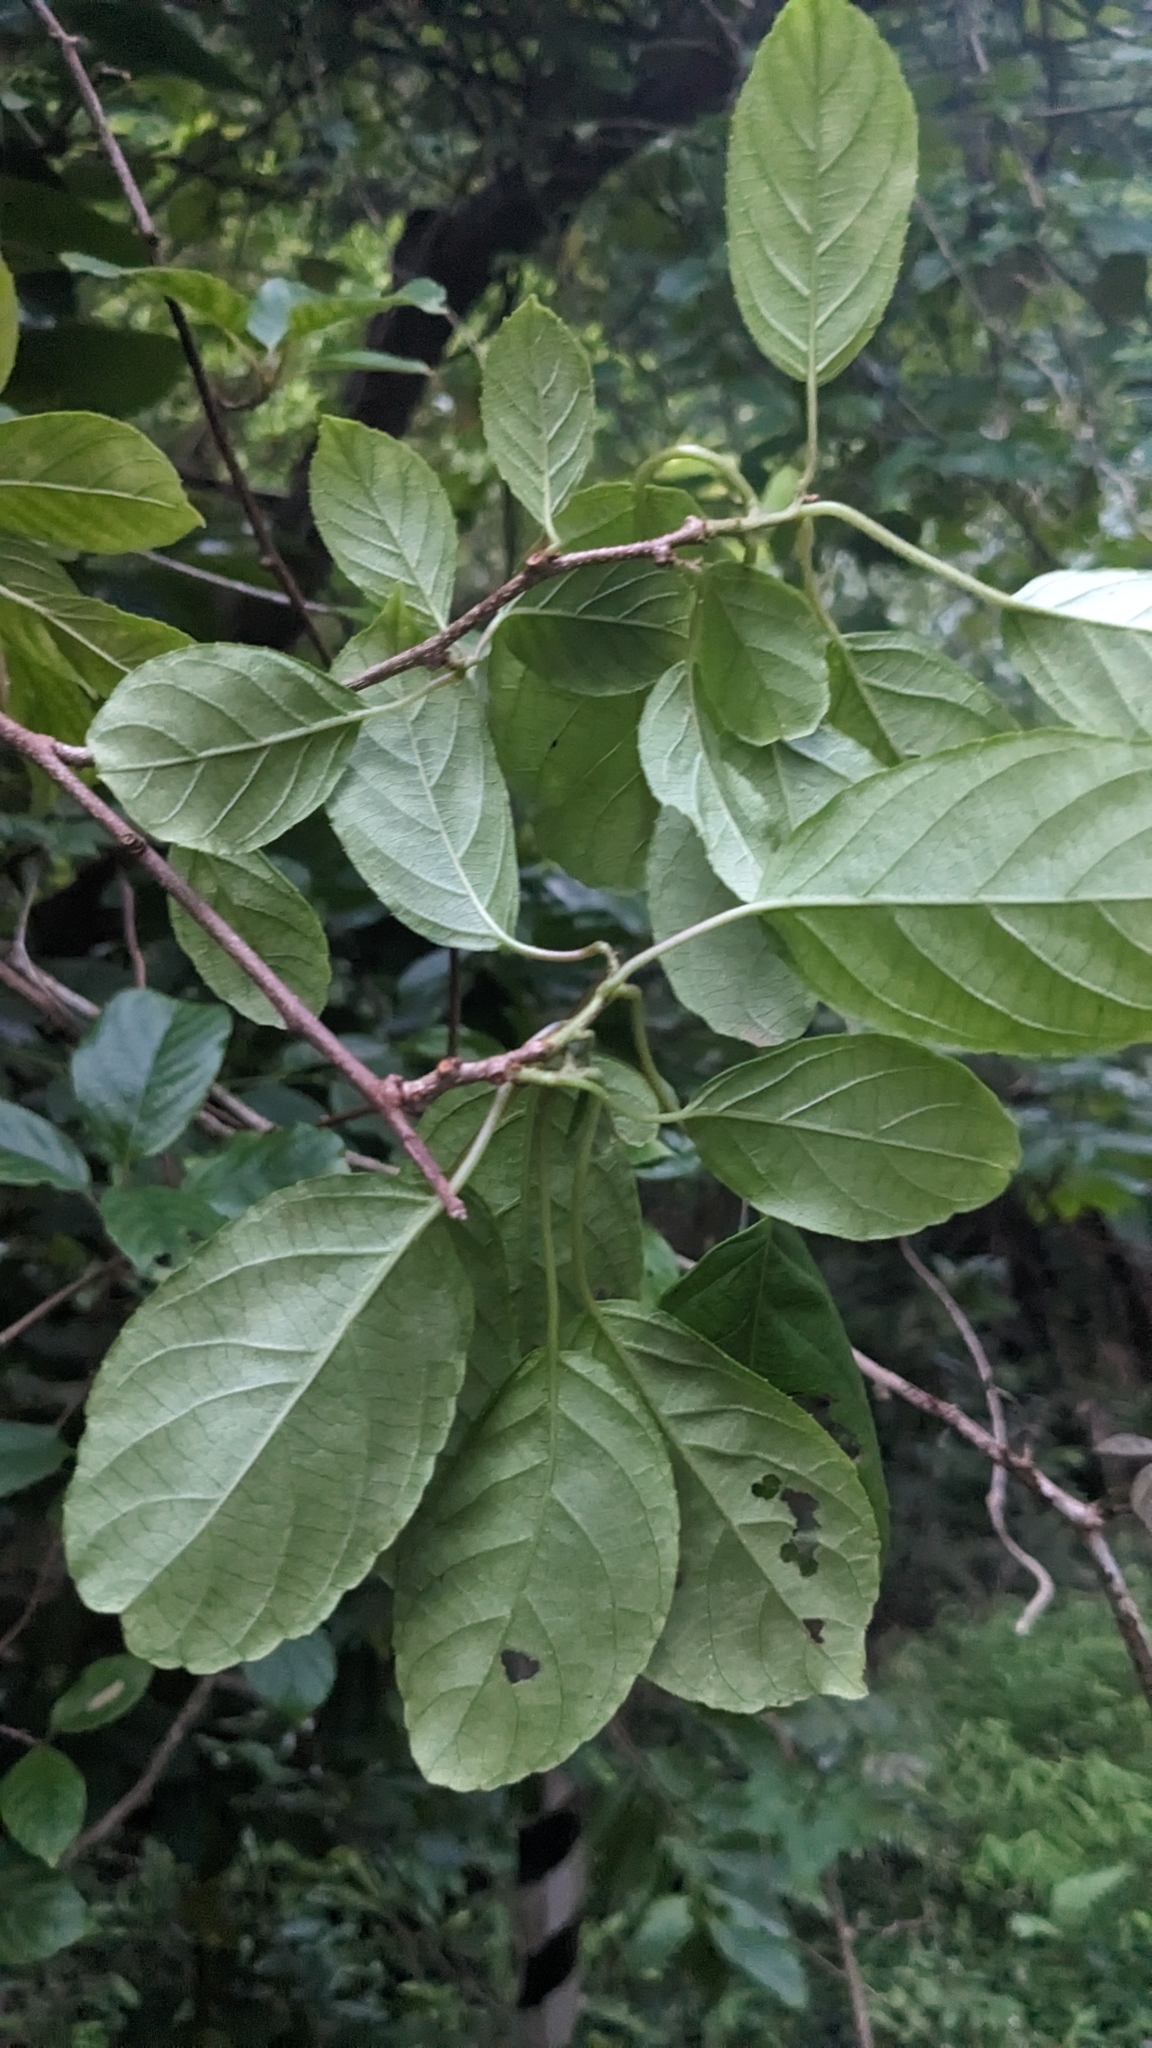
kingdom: Plantae
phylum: Tracheophyta
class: Magnoliopsida
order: Ericales
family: Actinidiaceae
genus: Actinidia
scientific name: Actinidia venosa
